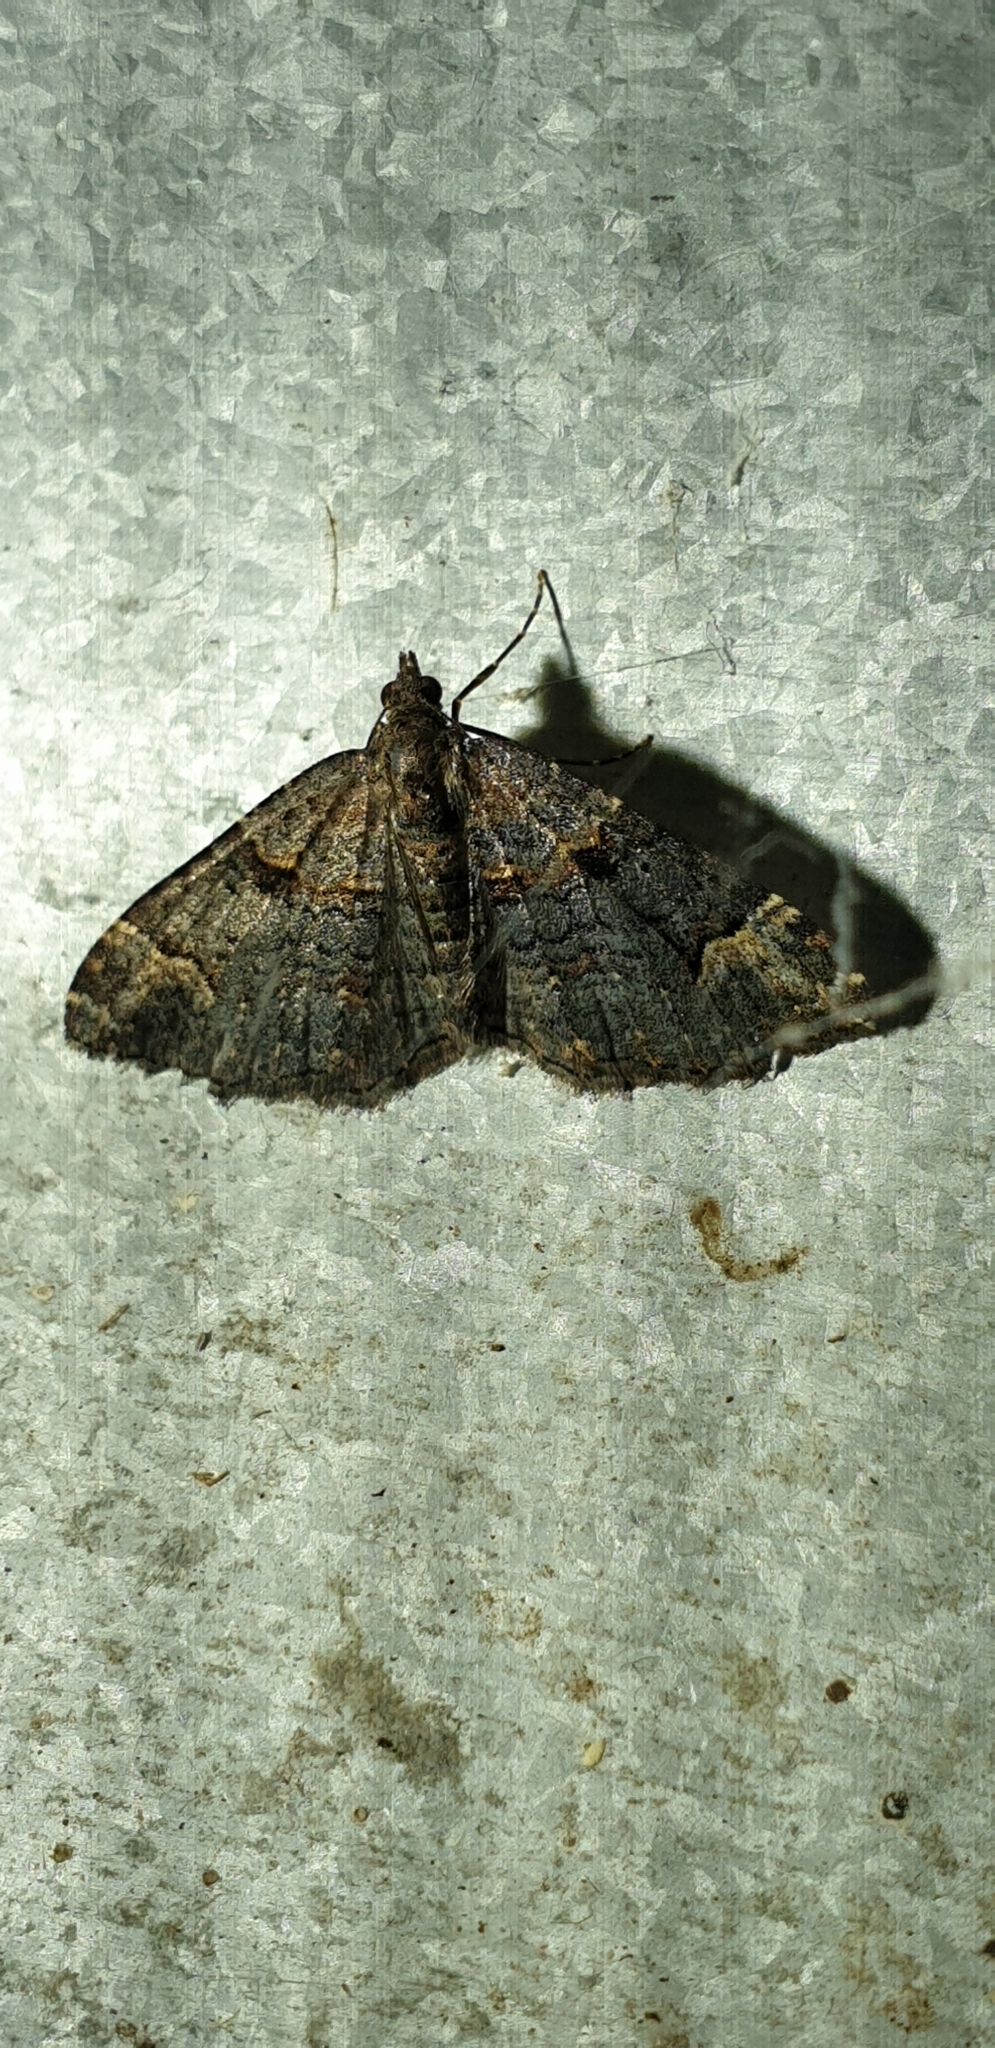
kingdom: Animalia
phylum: Arthropoda
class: Insecta
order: Lepidoptera
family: Geometridae
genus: Epyaxa
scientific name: Epyaxa sodaliata
